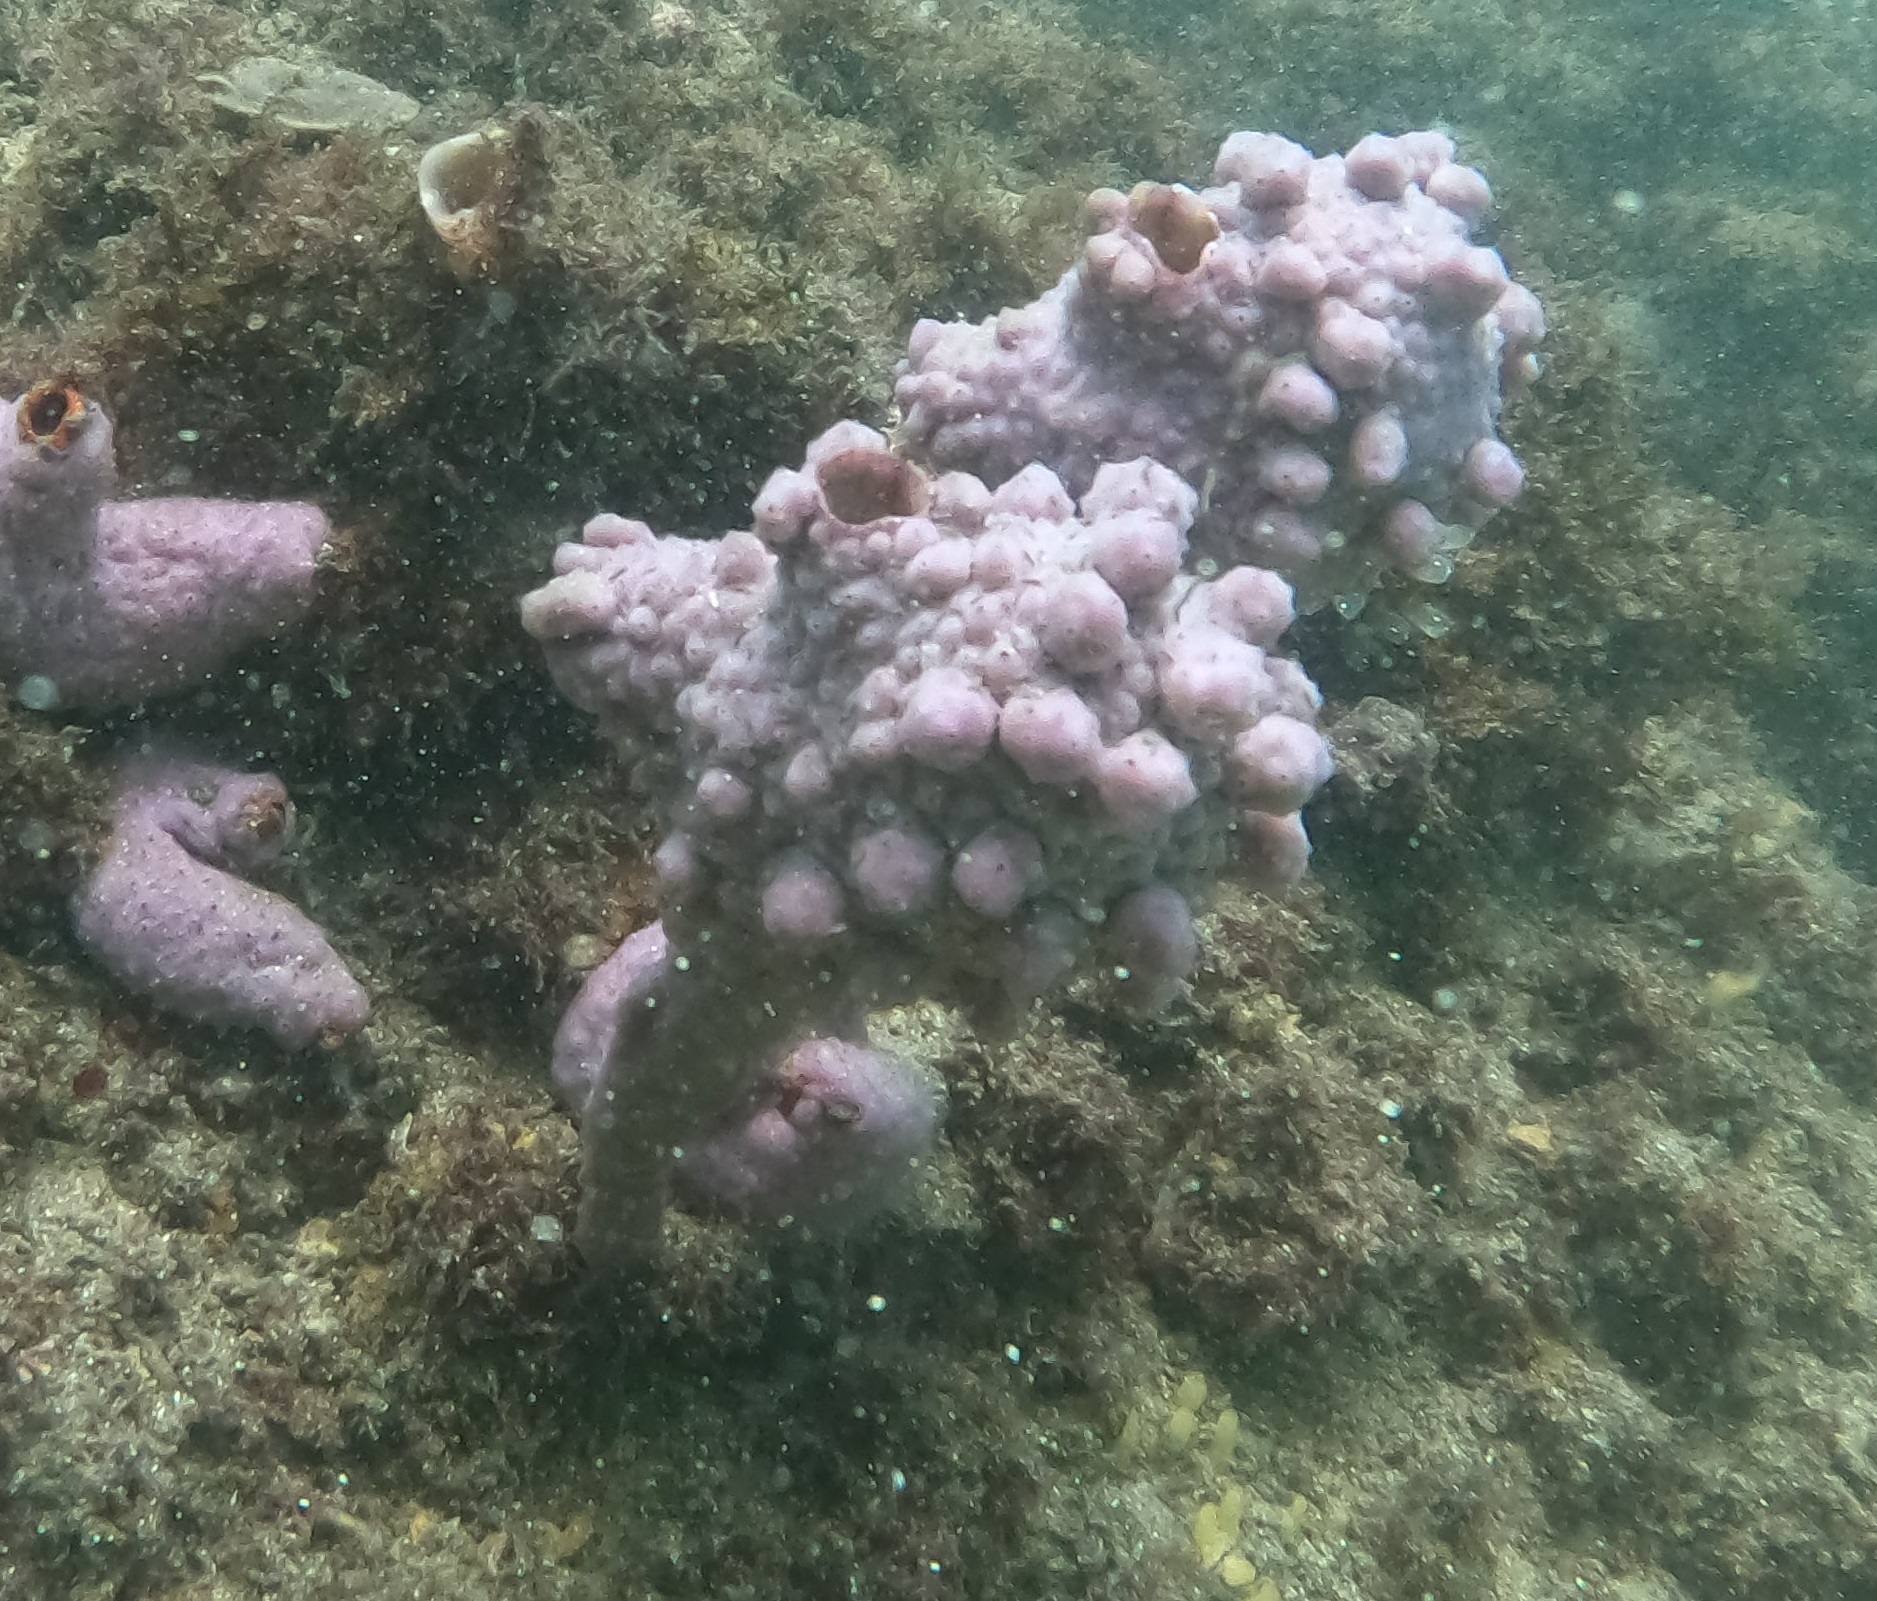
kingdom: Animalia
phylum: Chordata
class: Ascidiacea
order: Stolidobranchia
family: Pyuridae
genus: Pyura
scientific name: Pyura spinifera
